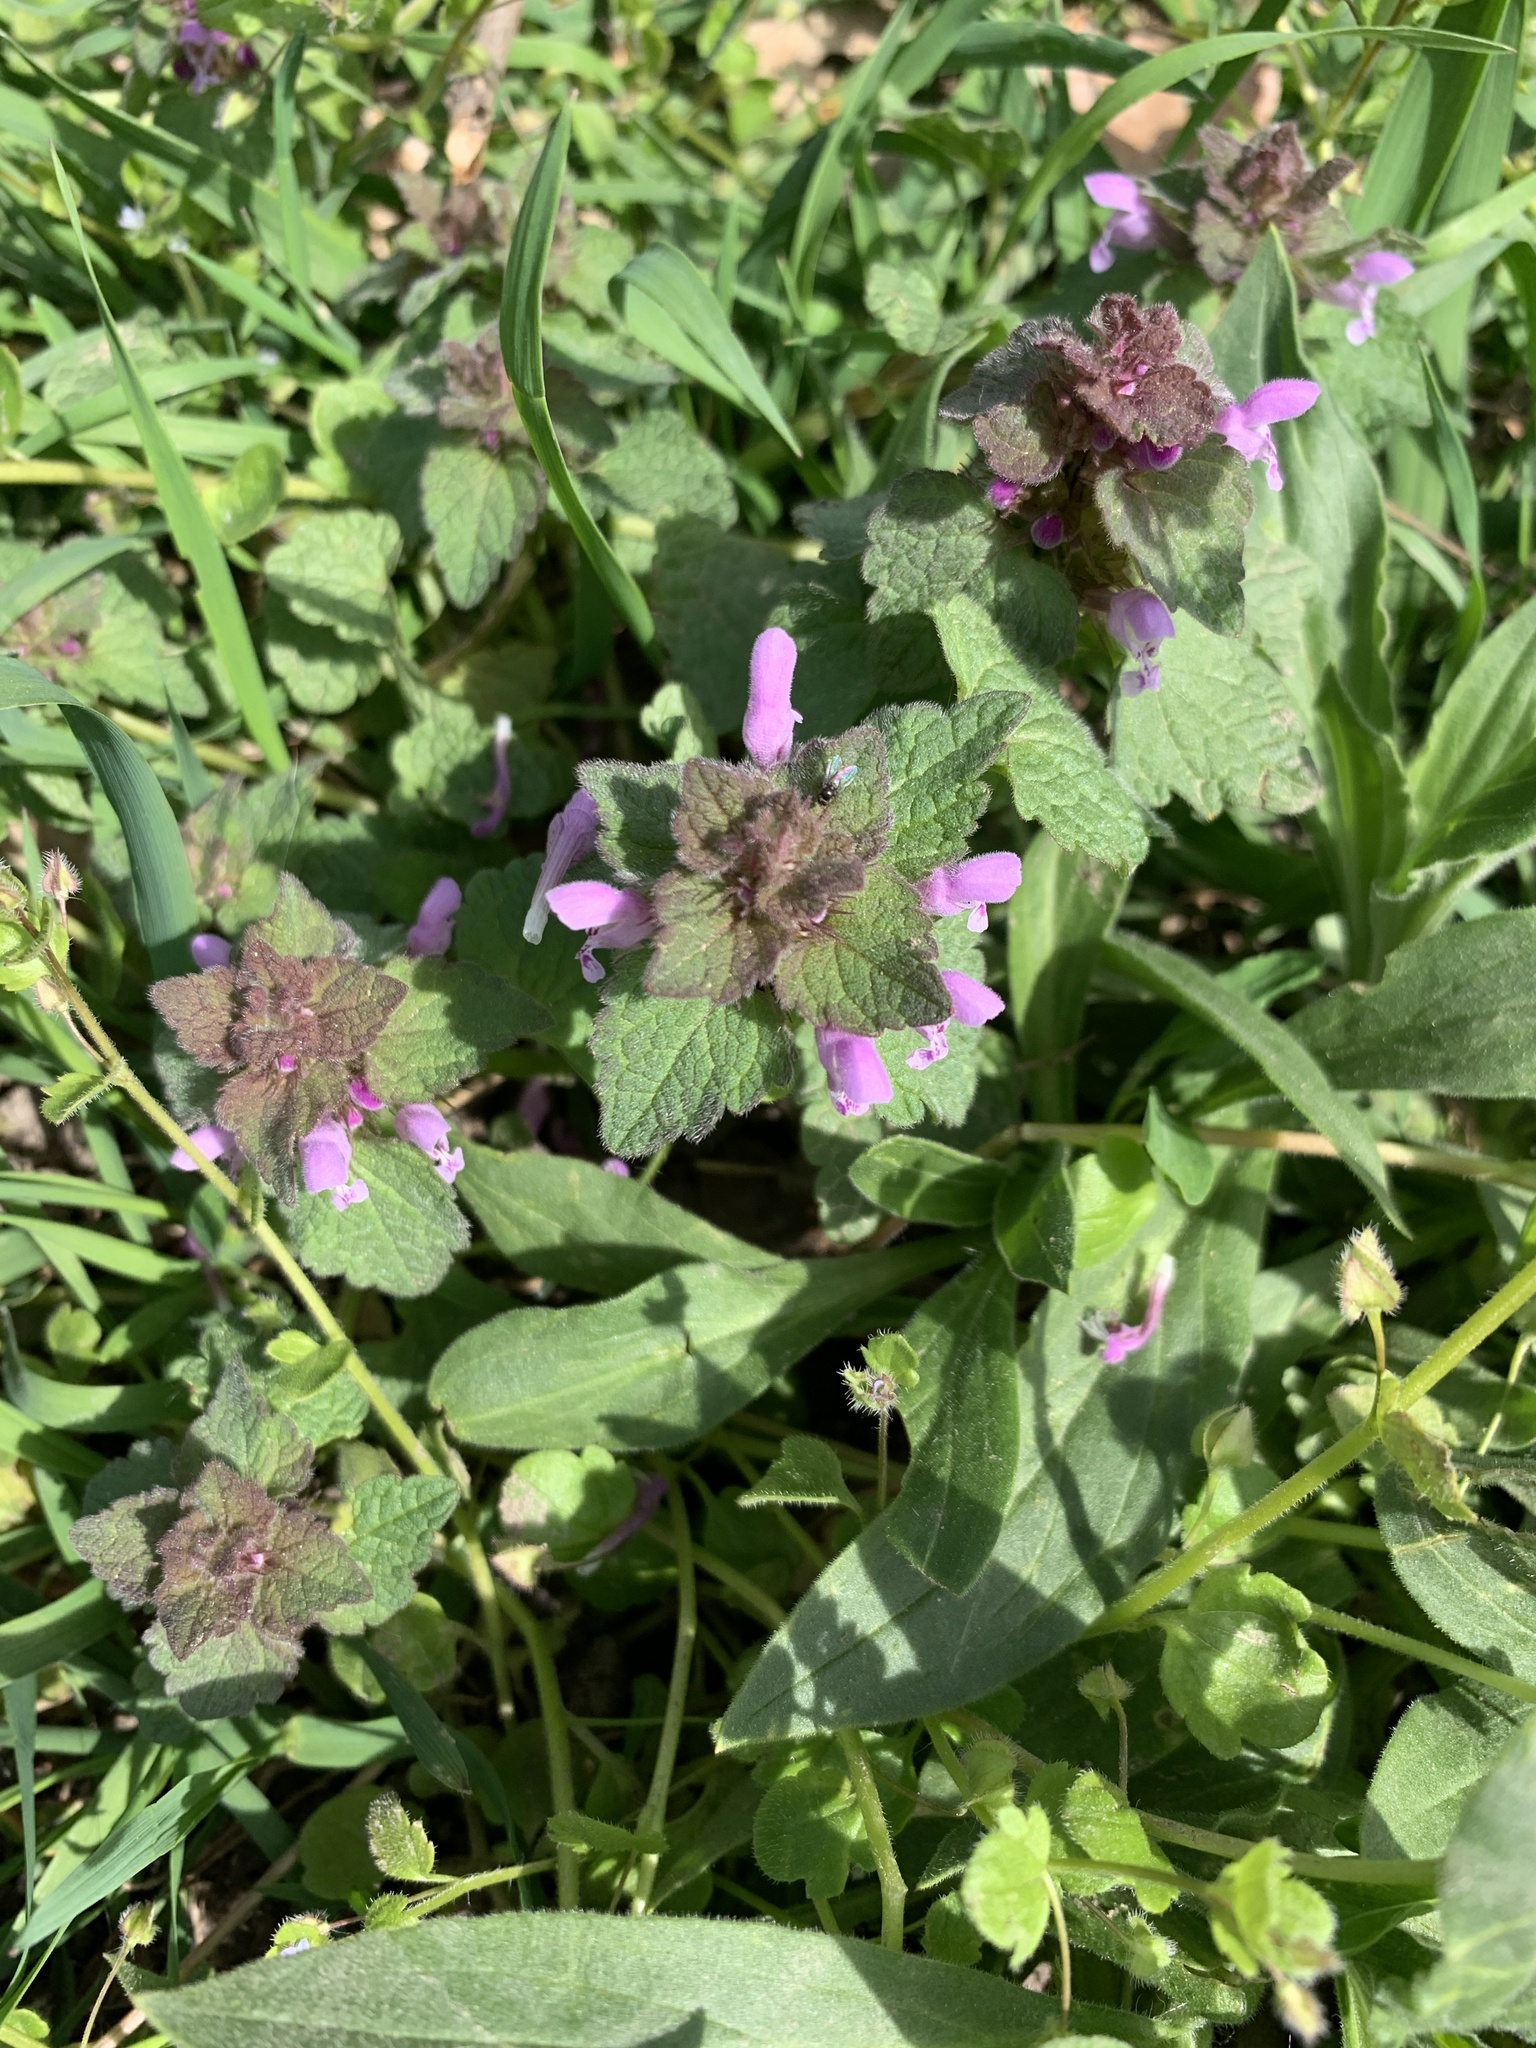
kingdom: Plantae
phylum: Tracheophyta
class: Magnoliopsida
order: Lamiales
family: Lamiaceae
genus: Lamium
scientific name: Lamium purpureum
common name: Red dead-nettle
